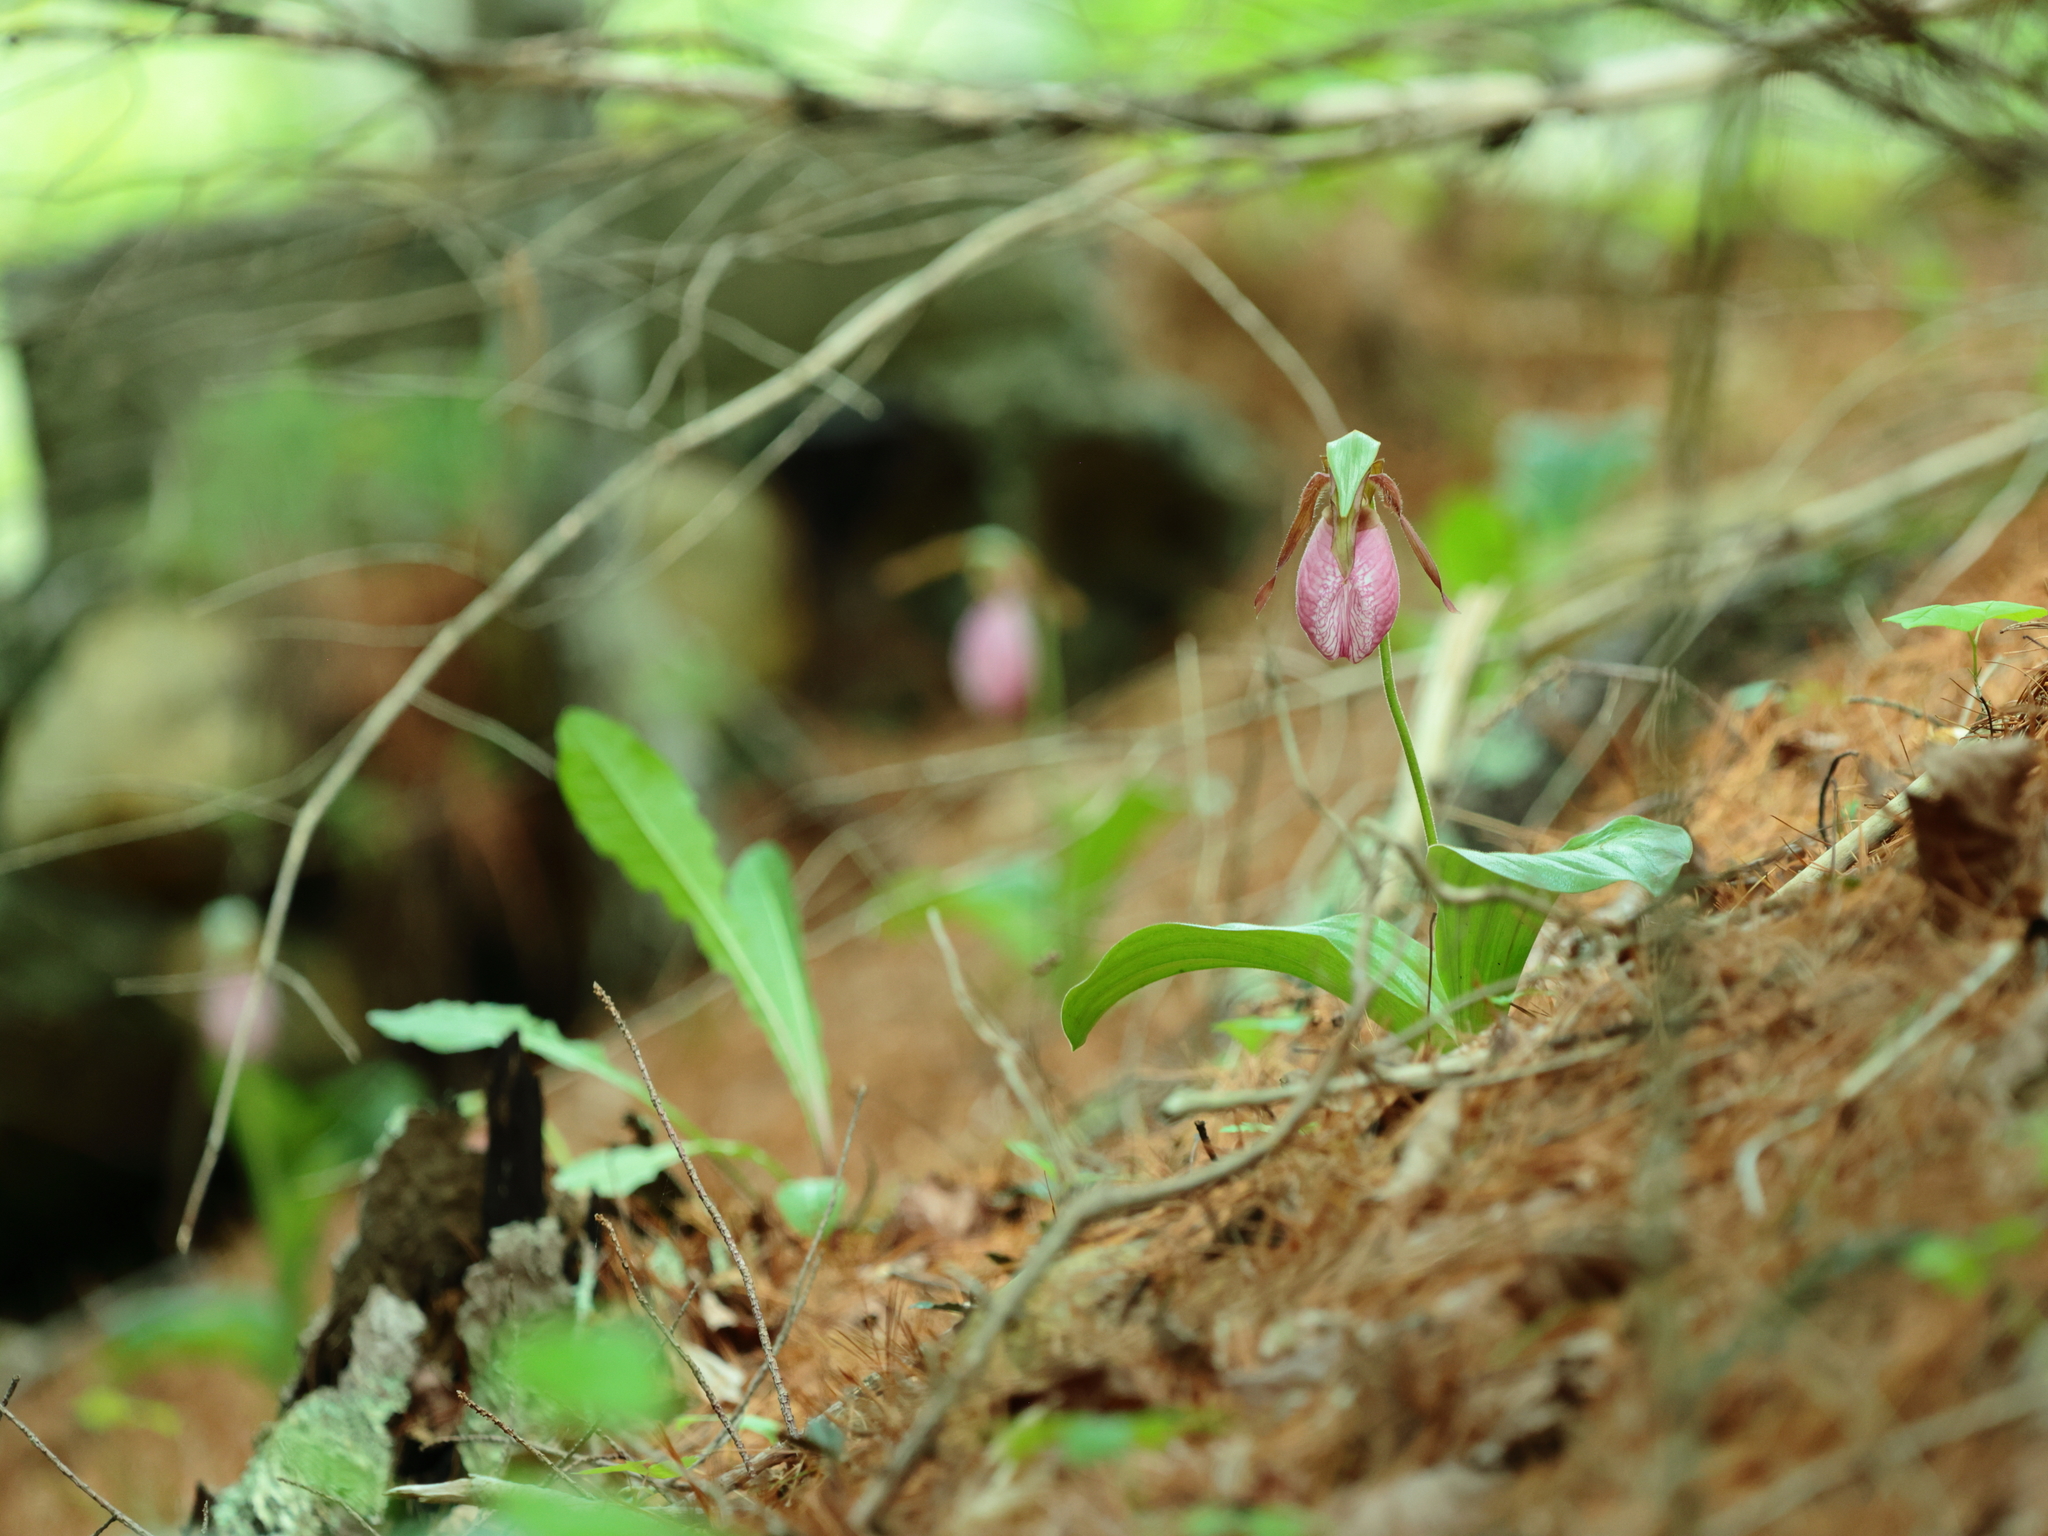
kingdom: Plantae
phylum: Tracheophyta
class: Liliopsida
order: Asparagales
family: Orchidaceae
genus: Cypripedium
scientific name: Cypripedium acaule
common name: Pink lady's-slipper
